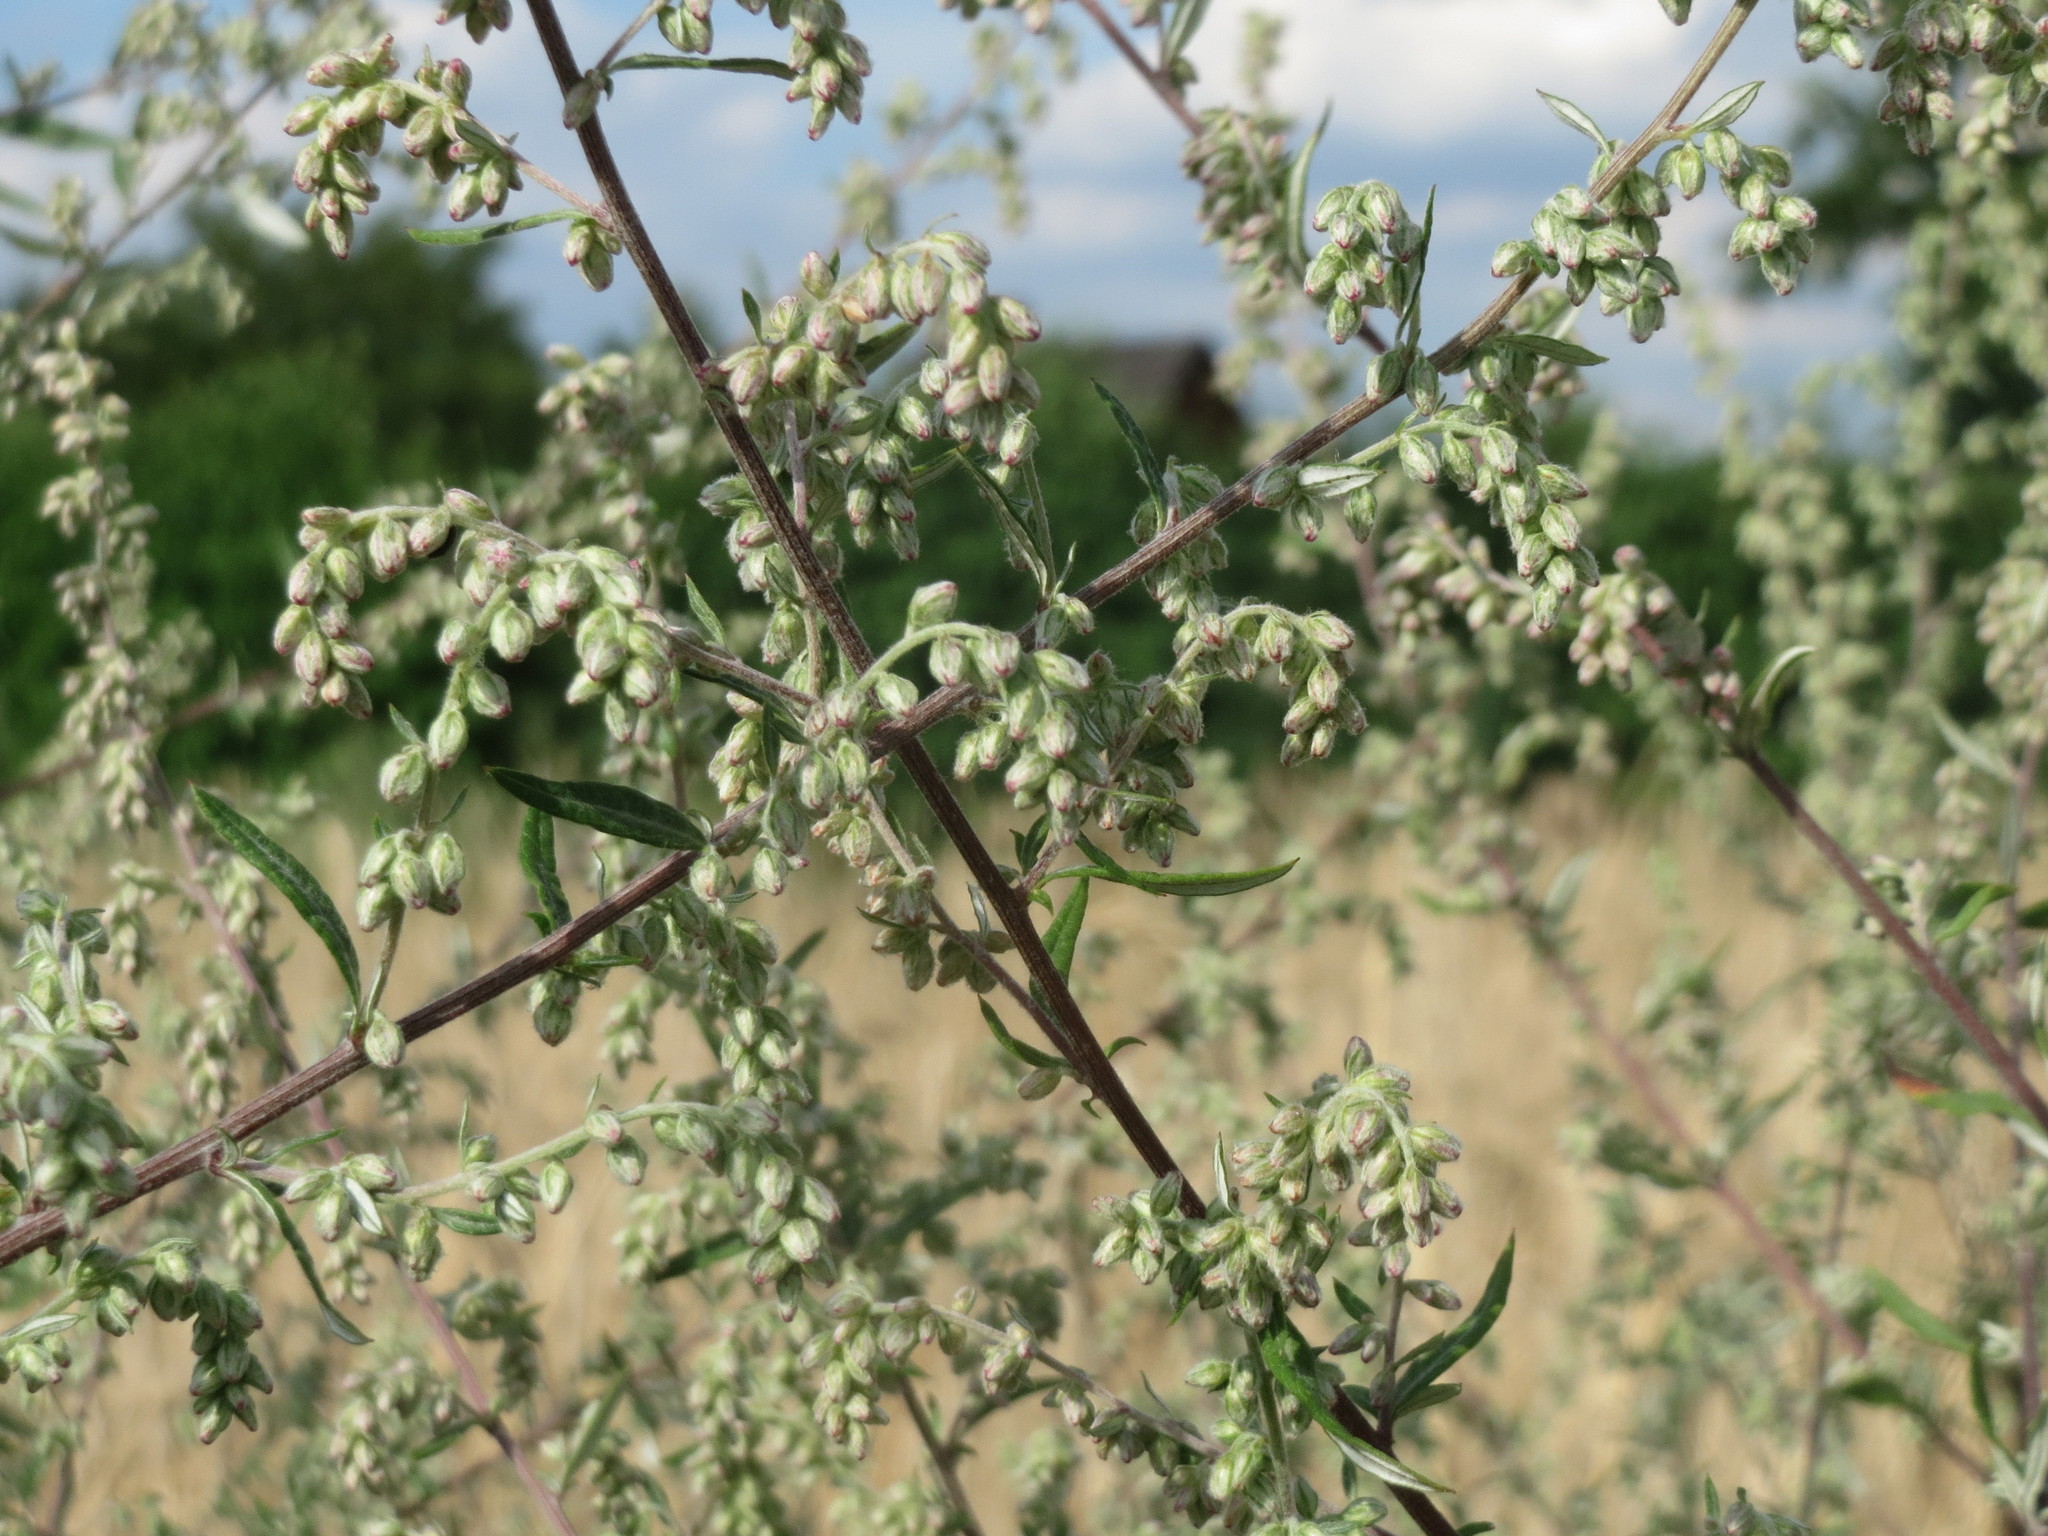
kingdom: Plantae
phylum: Tracheophyta
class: Magnoliopsida
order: Asterales
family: Asteraceae
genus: Artemisia
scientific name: Artemisia vulgaris
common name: Mugwort
